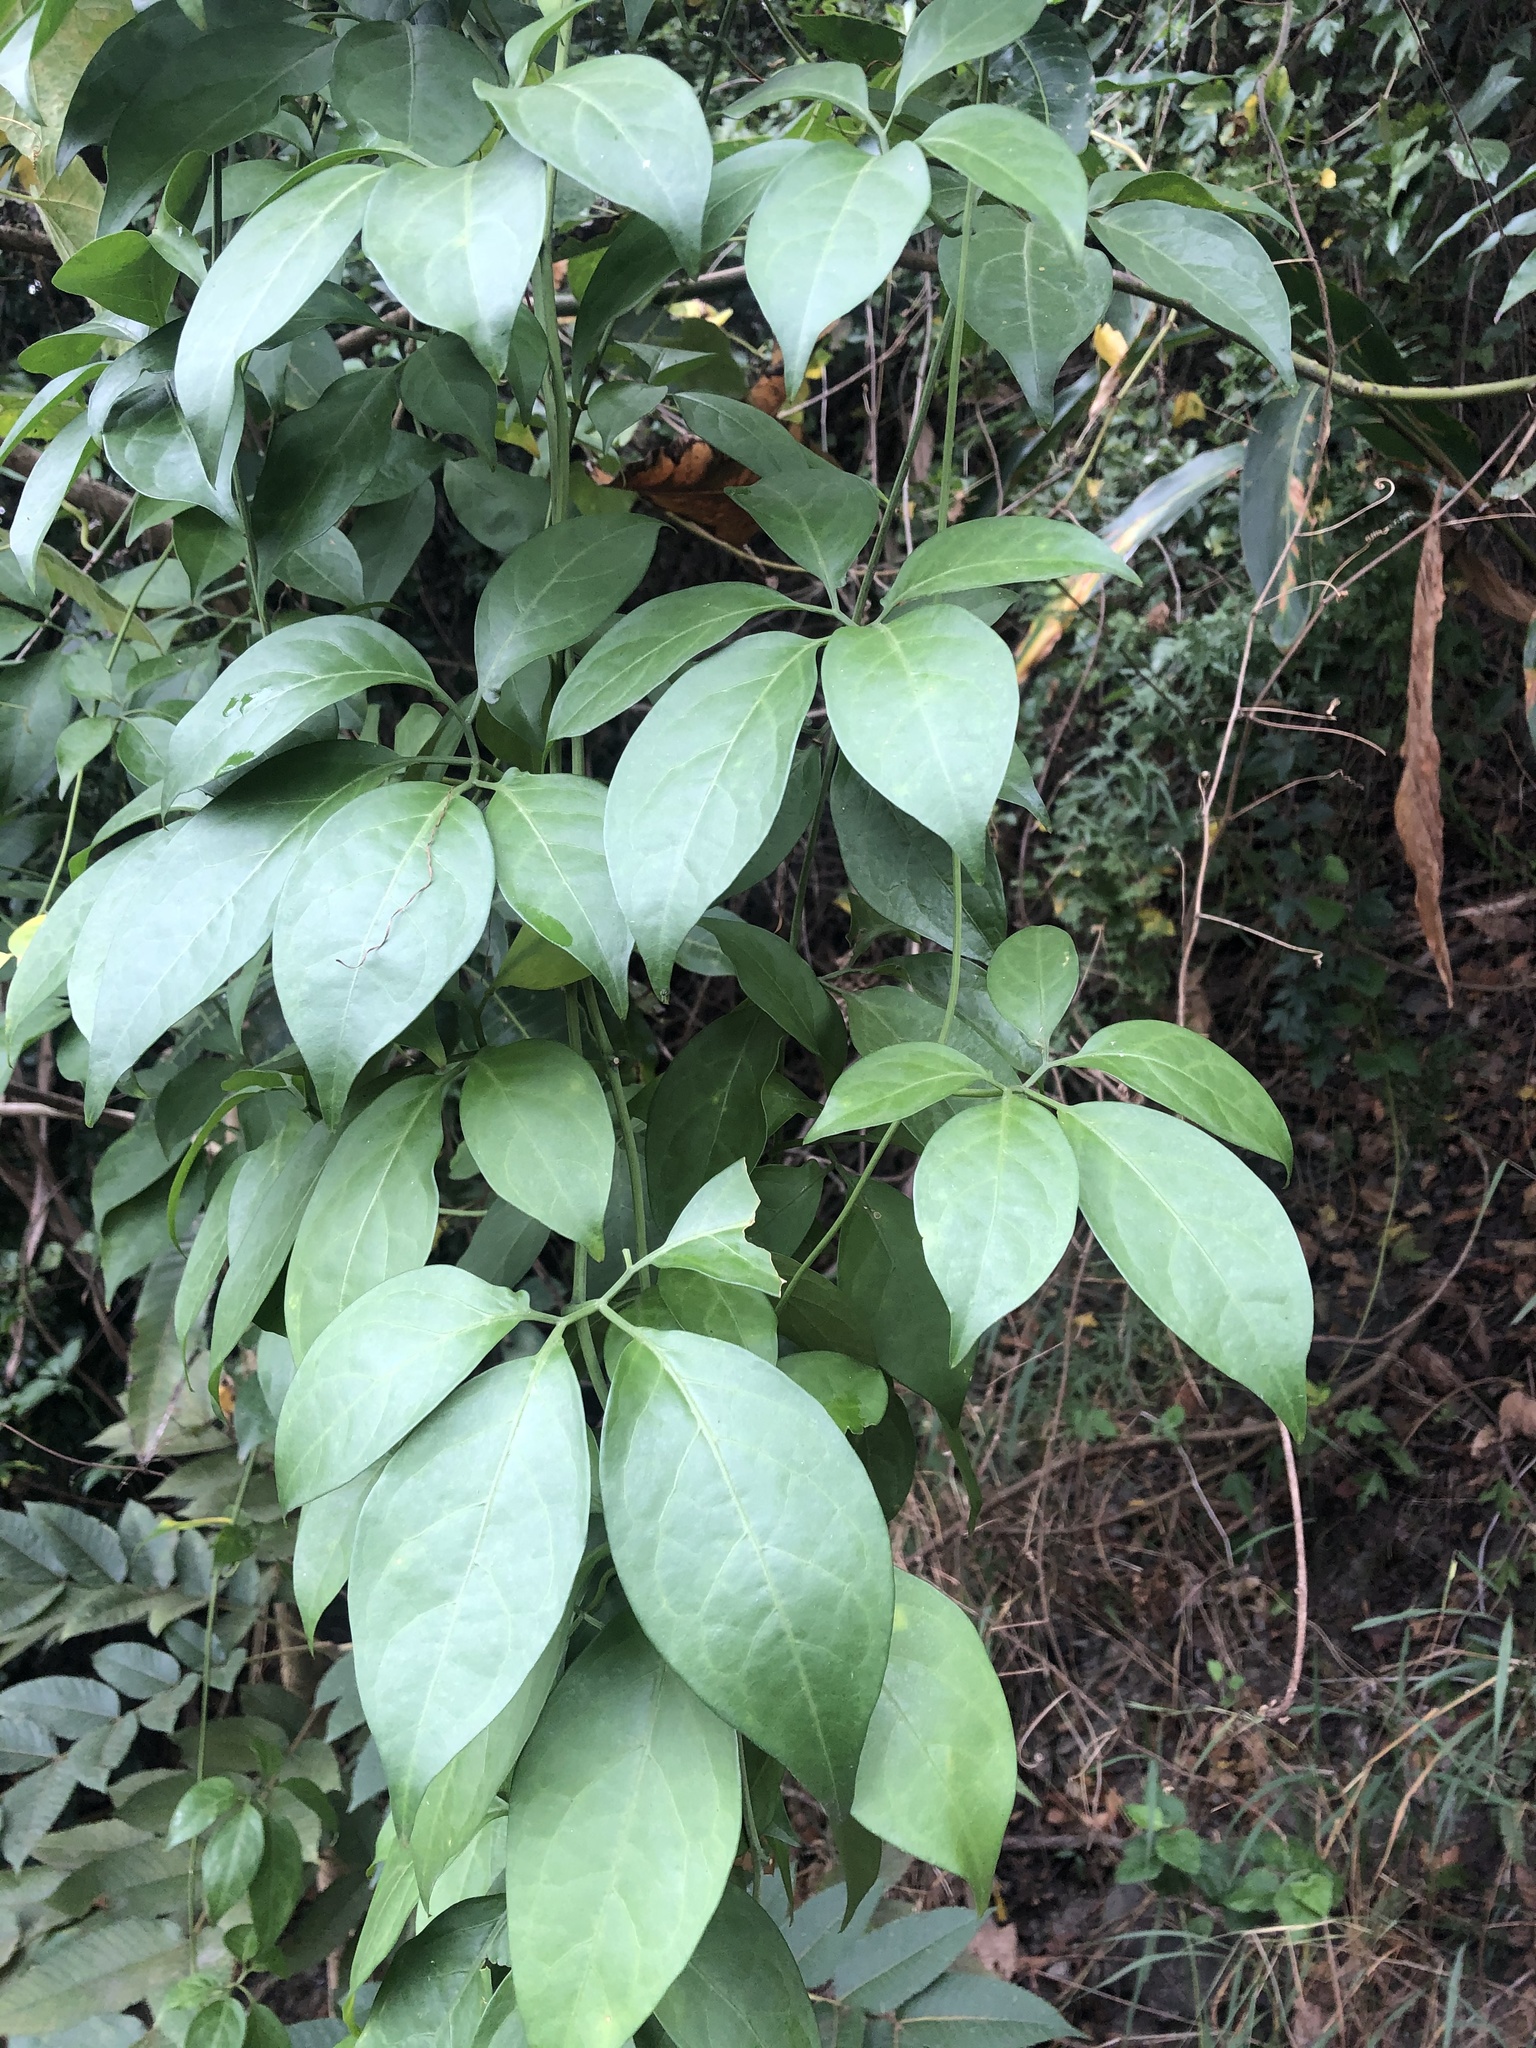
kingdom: Plantae
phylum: Tracheophyta
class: Magnoliopsida
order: Cucurbitales
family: Cucurbitaceae
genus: Neoalsomitra
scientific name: Neoalsomitra clavigera
